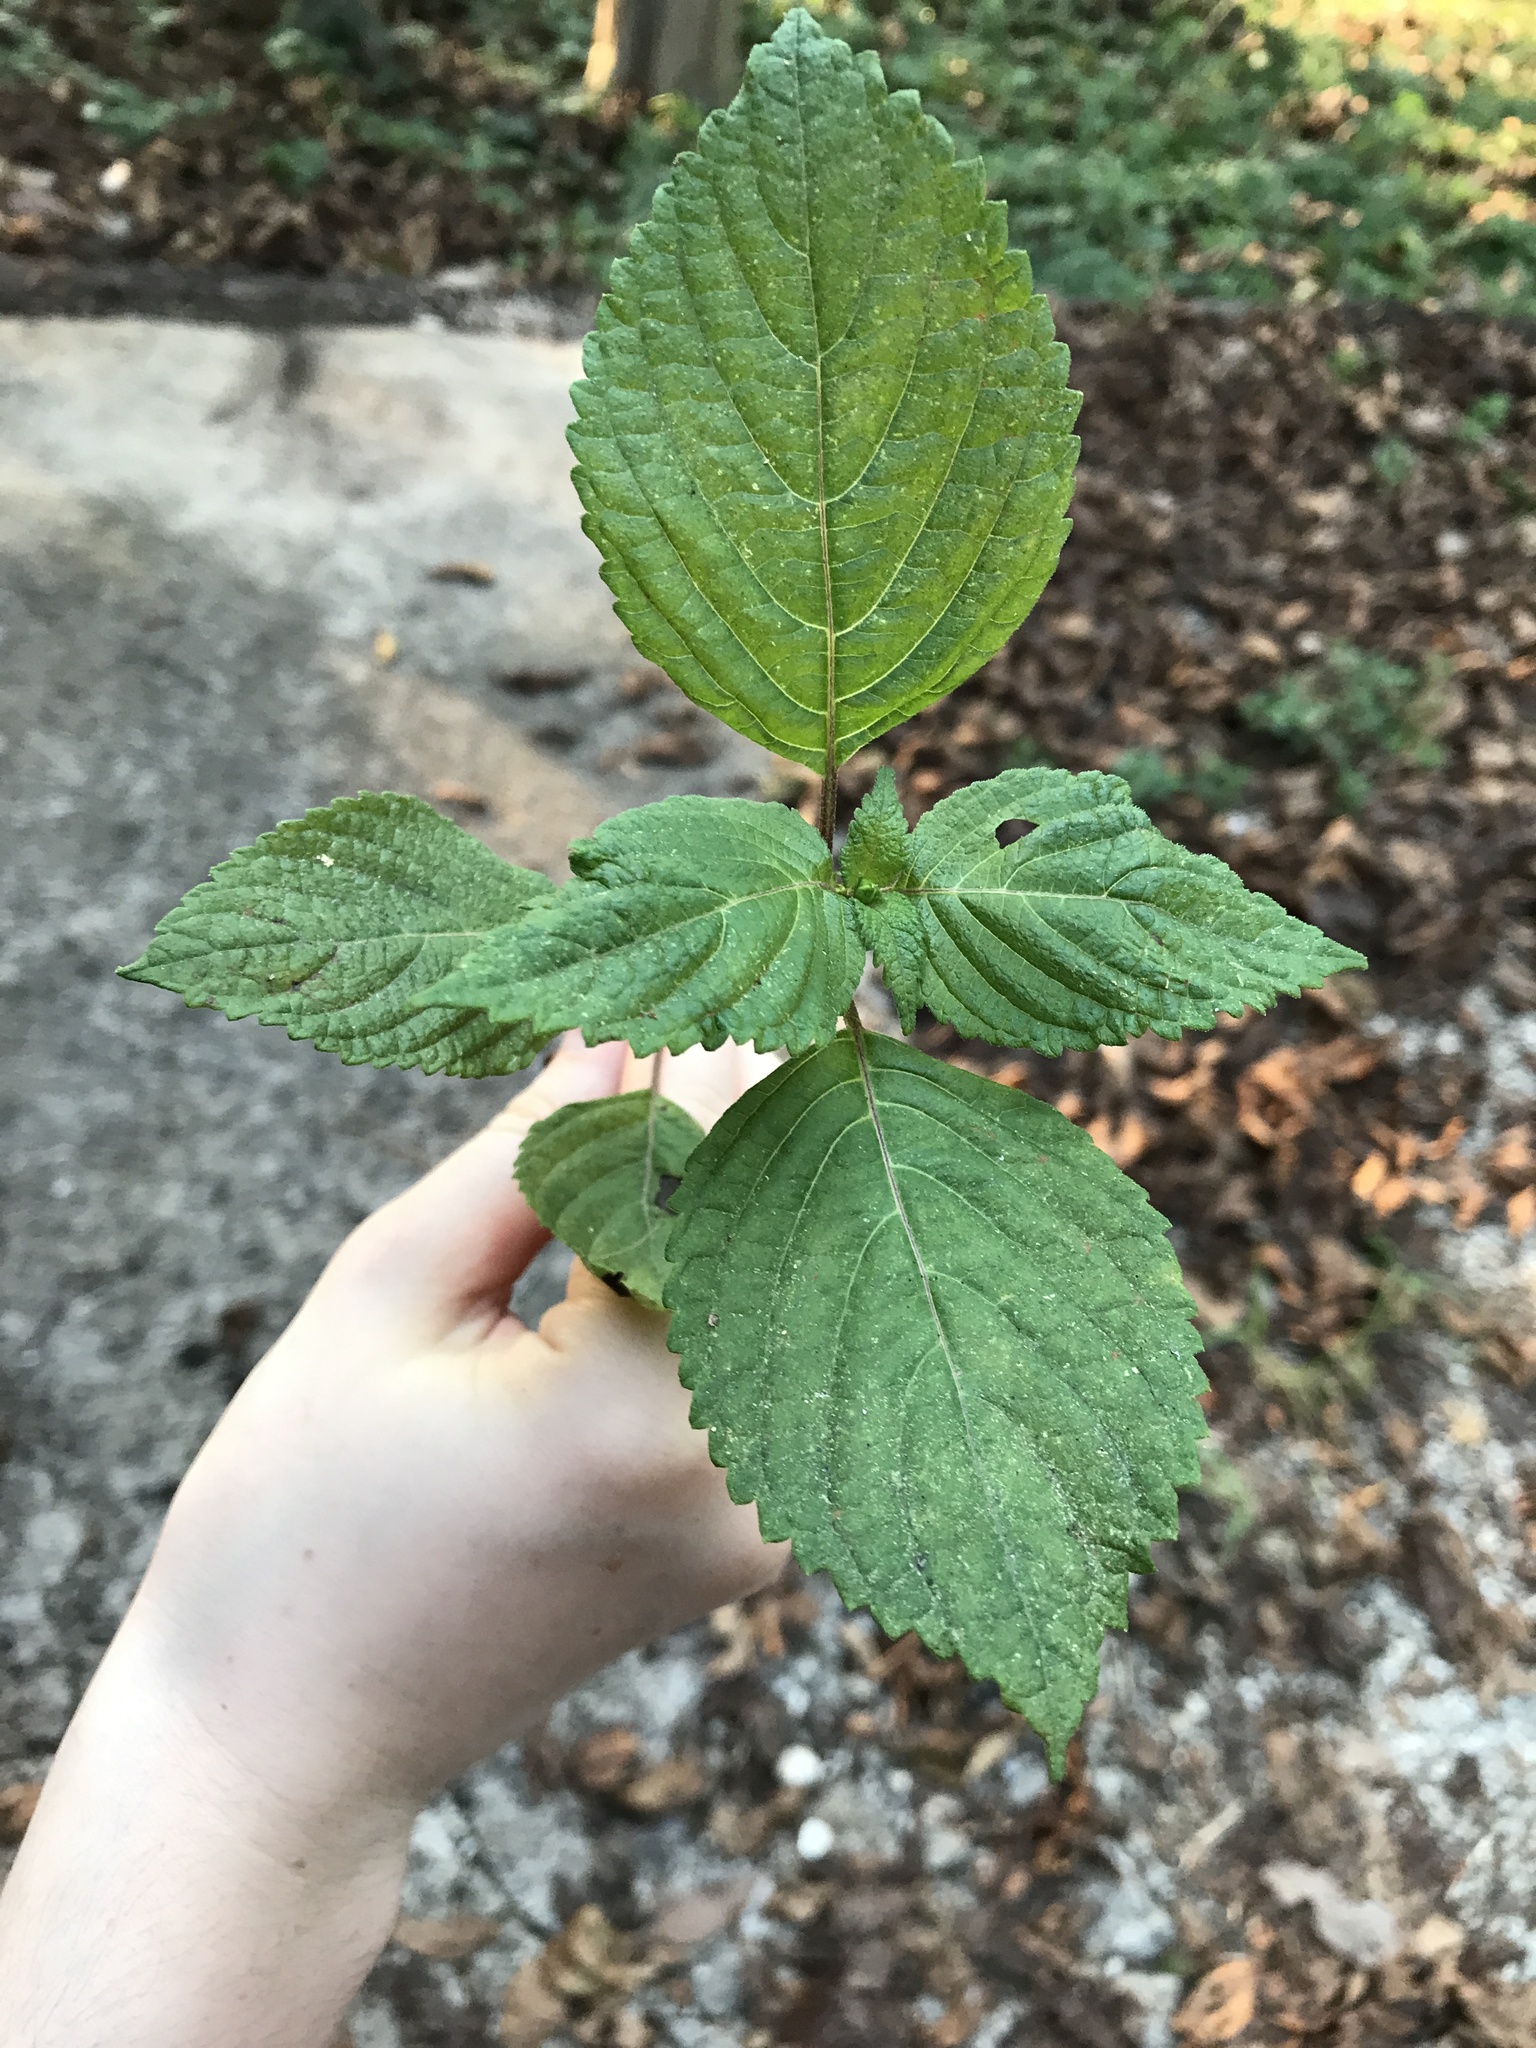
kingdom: Plantae
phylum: Tracheophyta
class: Magnoliopsida
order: Lamiales
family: Lamiaceae
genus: Perilla
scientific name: Perilla frutescens
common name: Perilla
